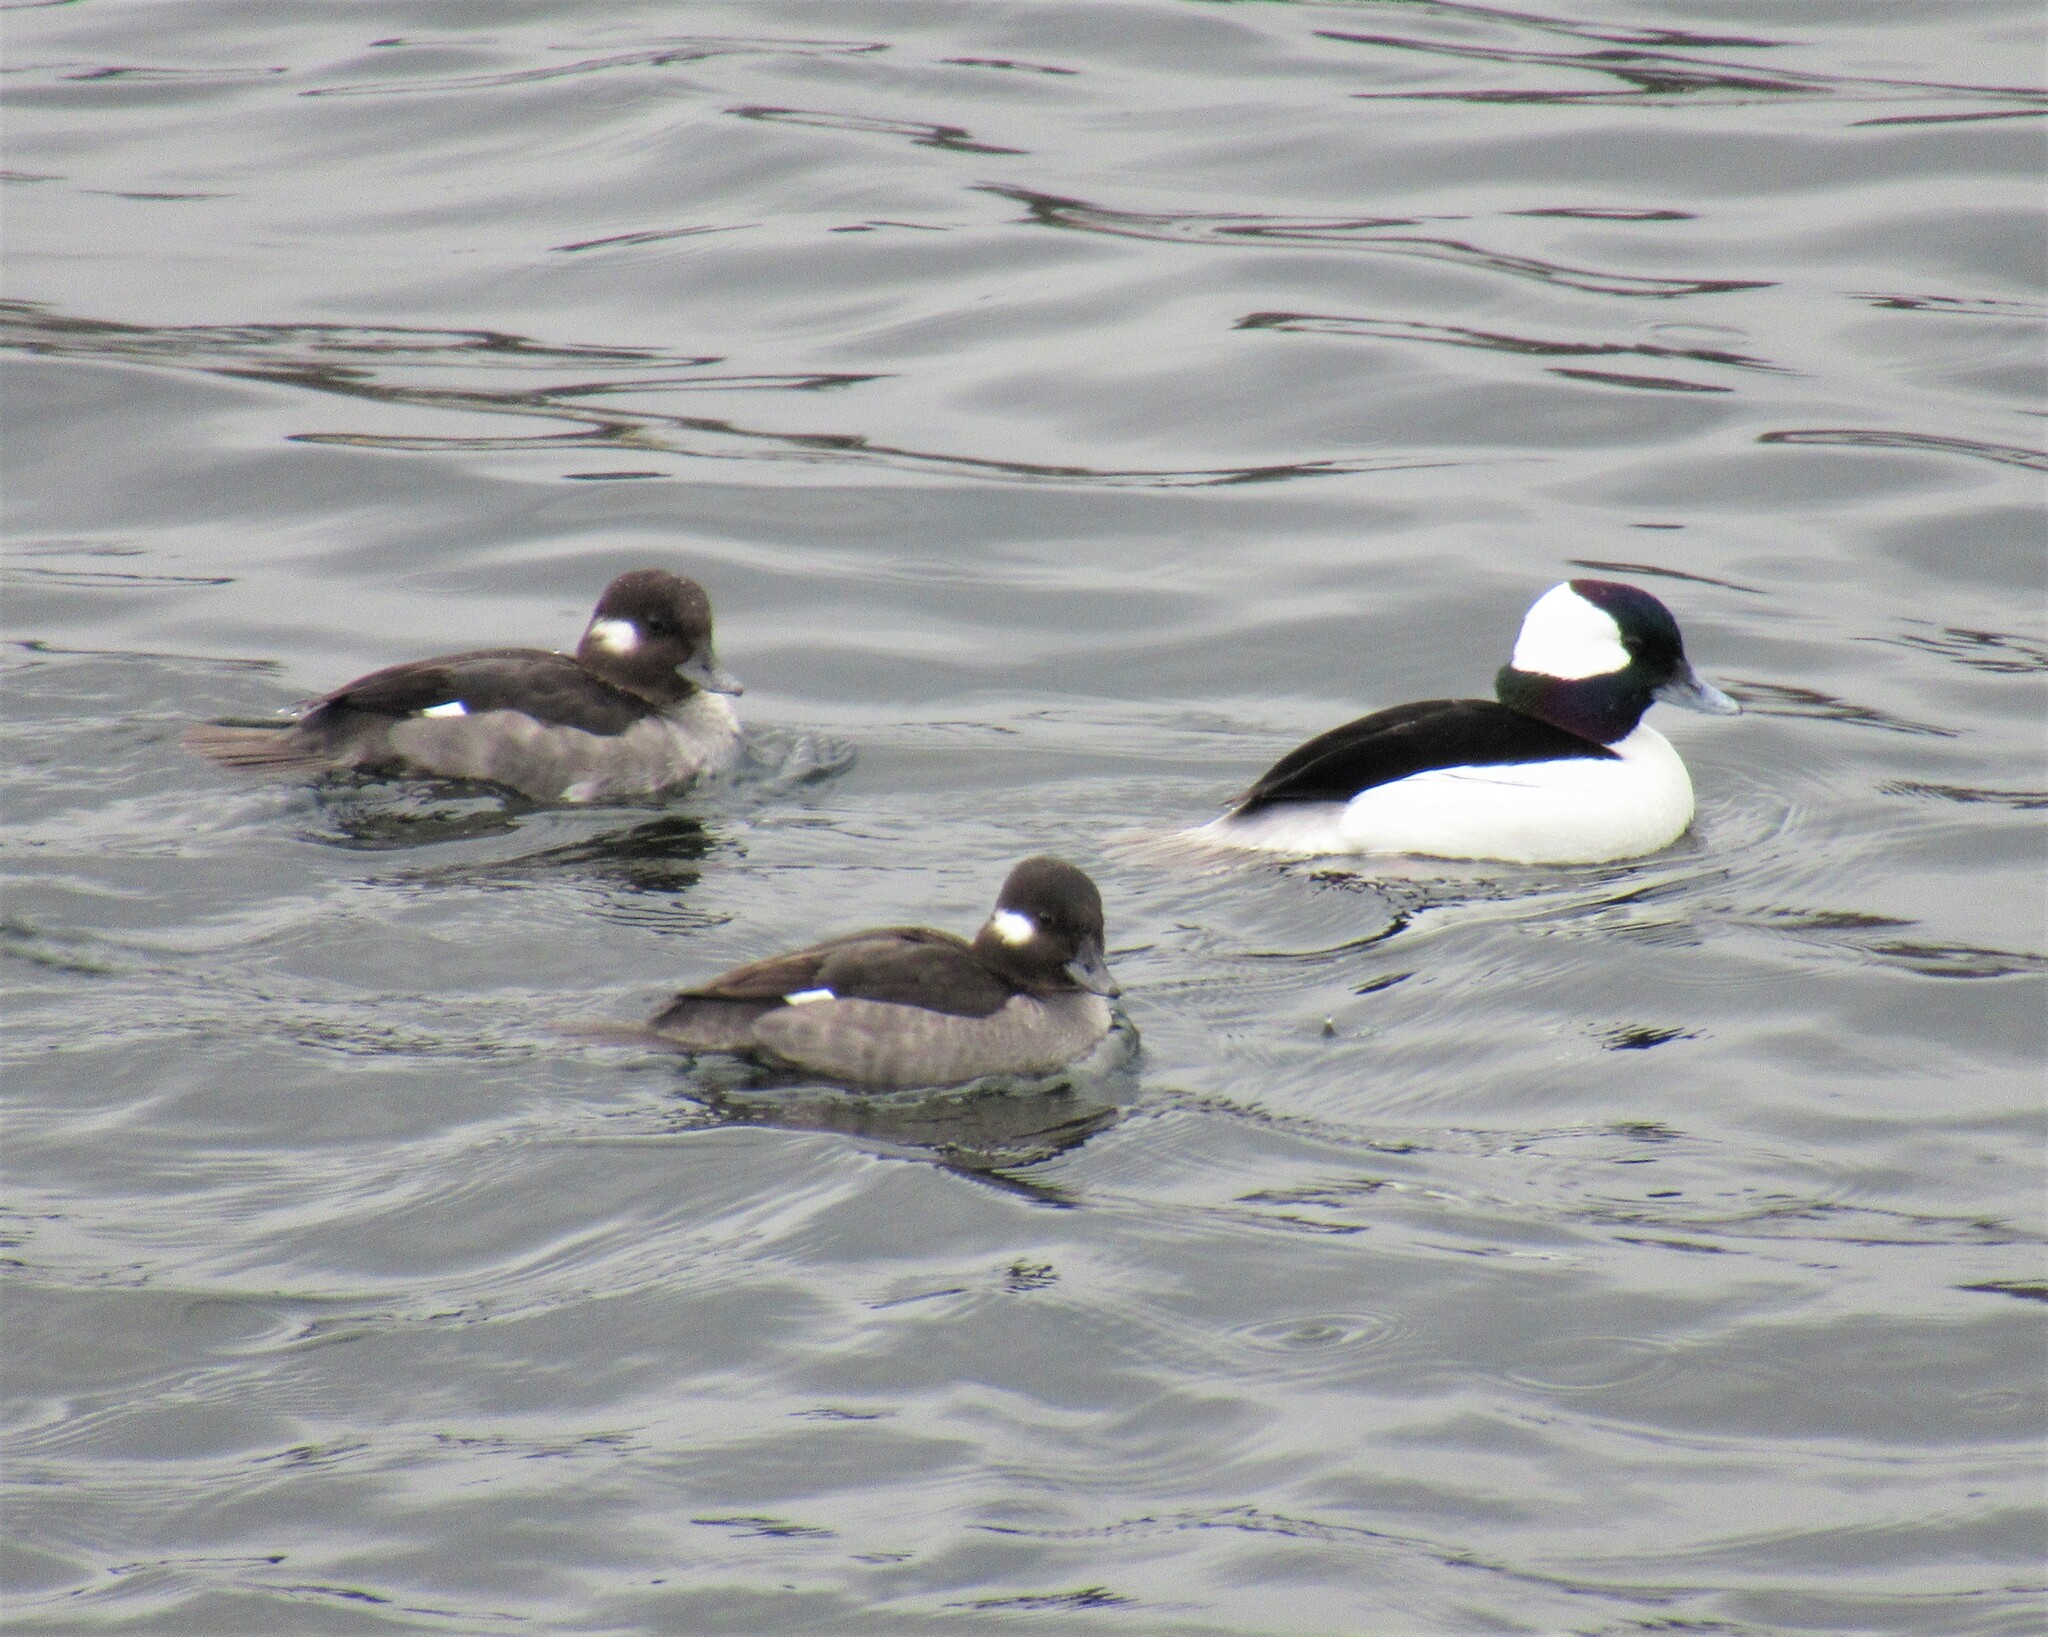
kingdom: Animalia
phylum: Chordata
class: Aves
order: Anseriformes
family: Anatidae
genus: Bucephala
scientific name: Bucephala albeola
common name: Bufflehead
